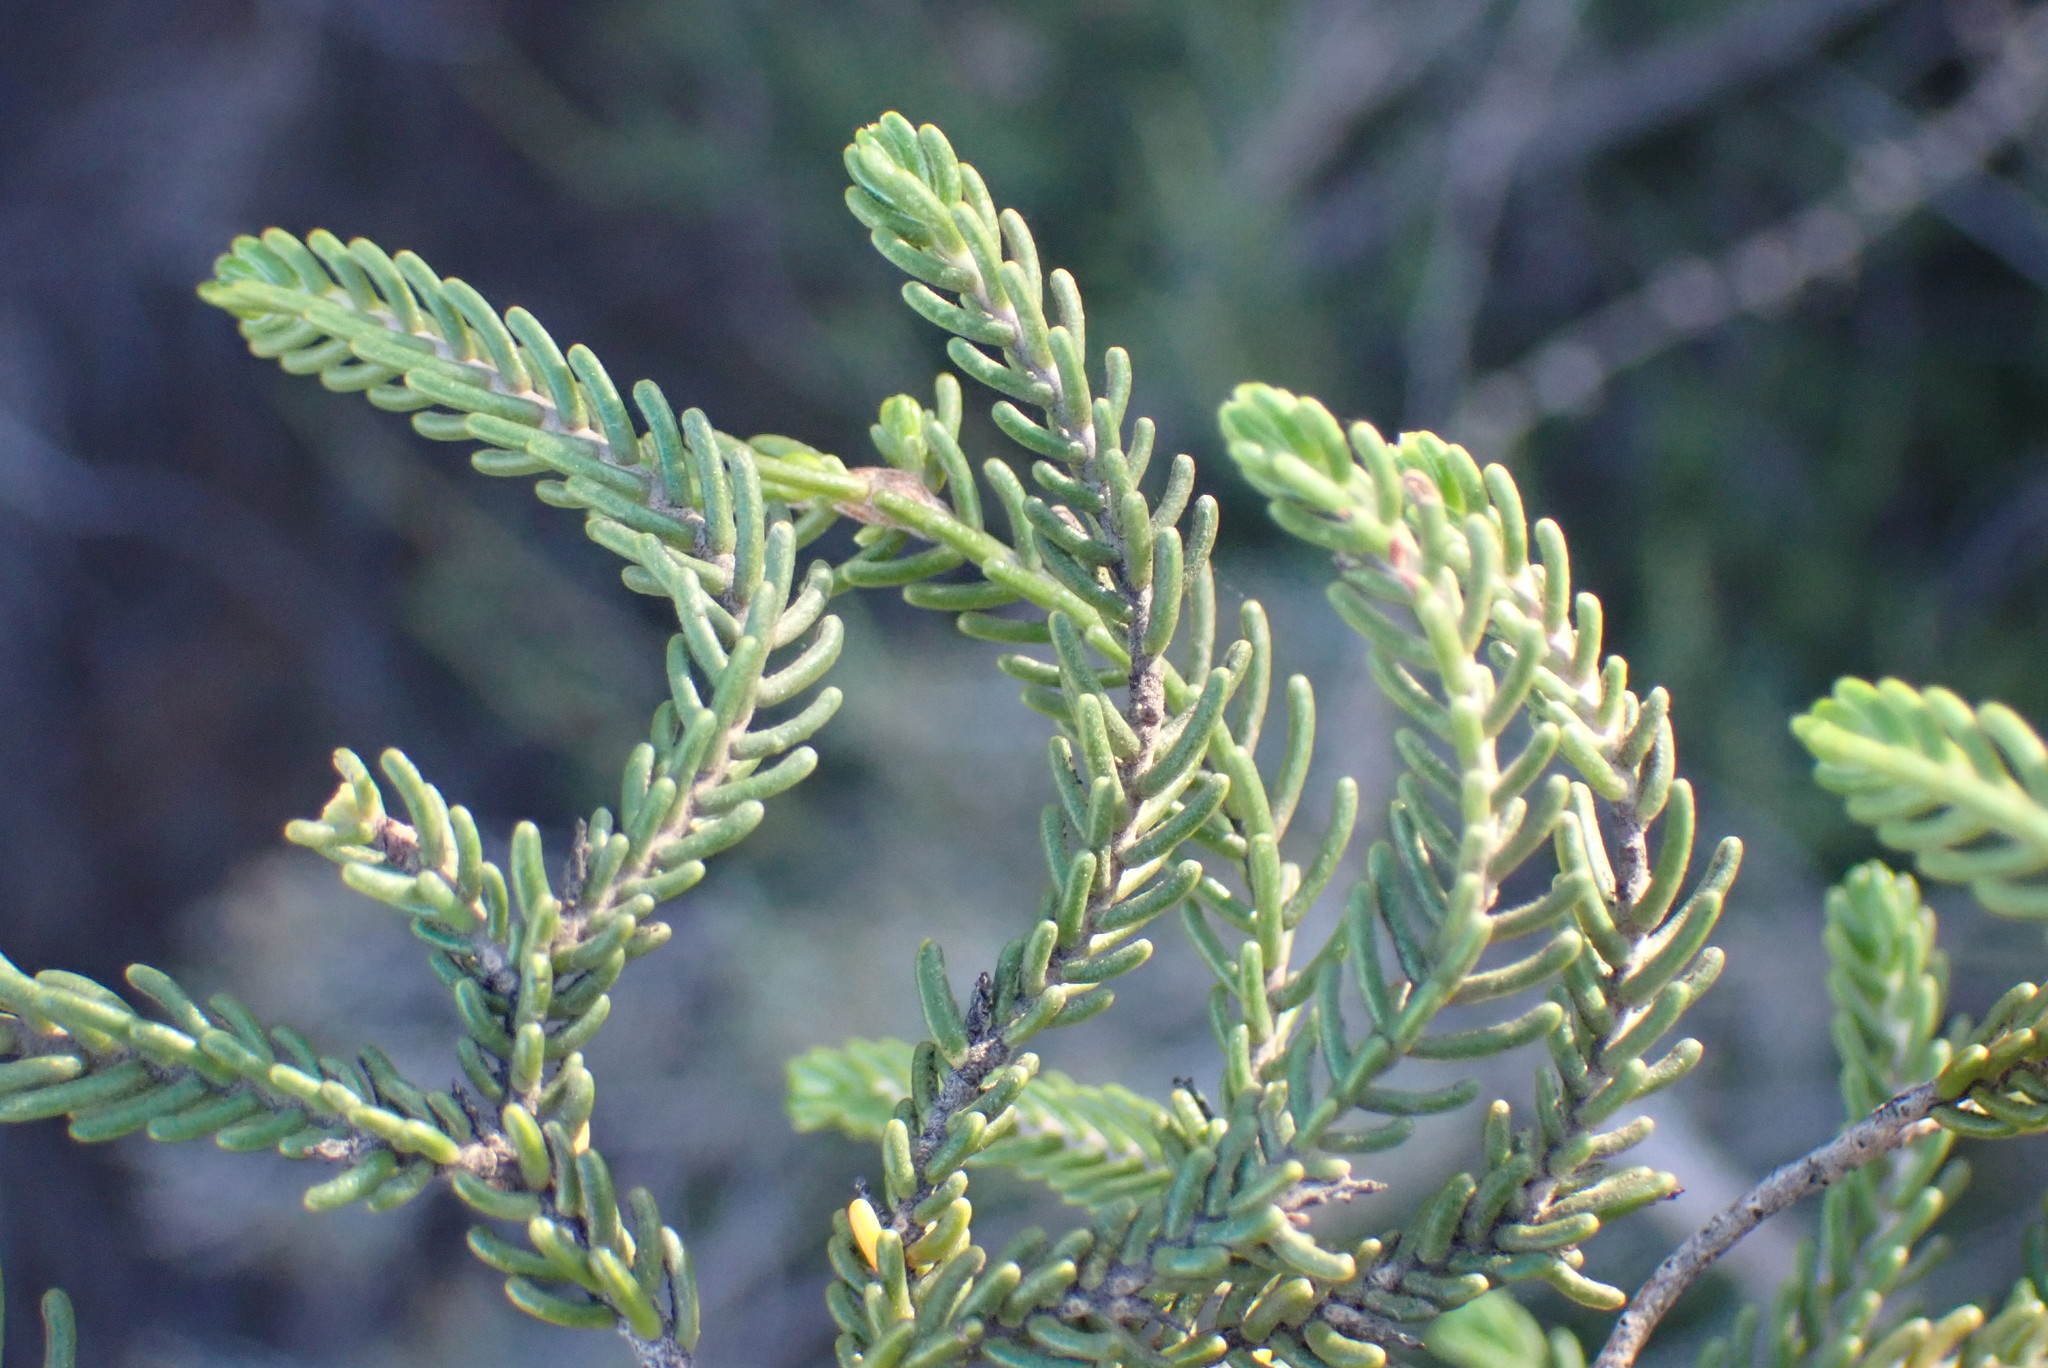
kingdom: Plantae
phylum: Tracheophyta
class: Magnoliopsida
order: Malvales
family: Thymelaeaceae
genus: Passerina
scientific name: Passerina obtusifolia
